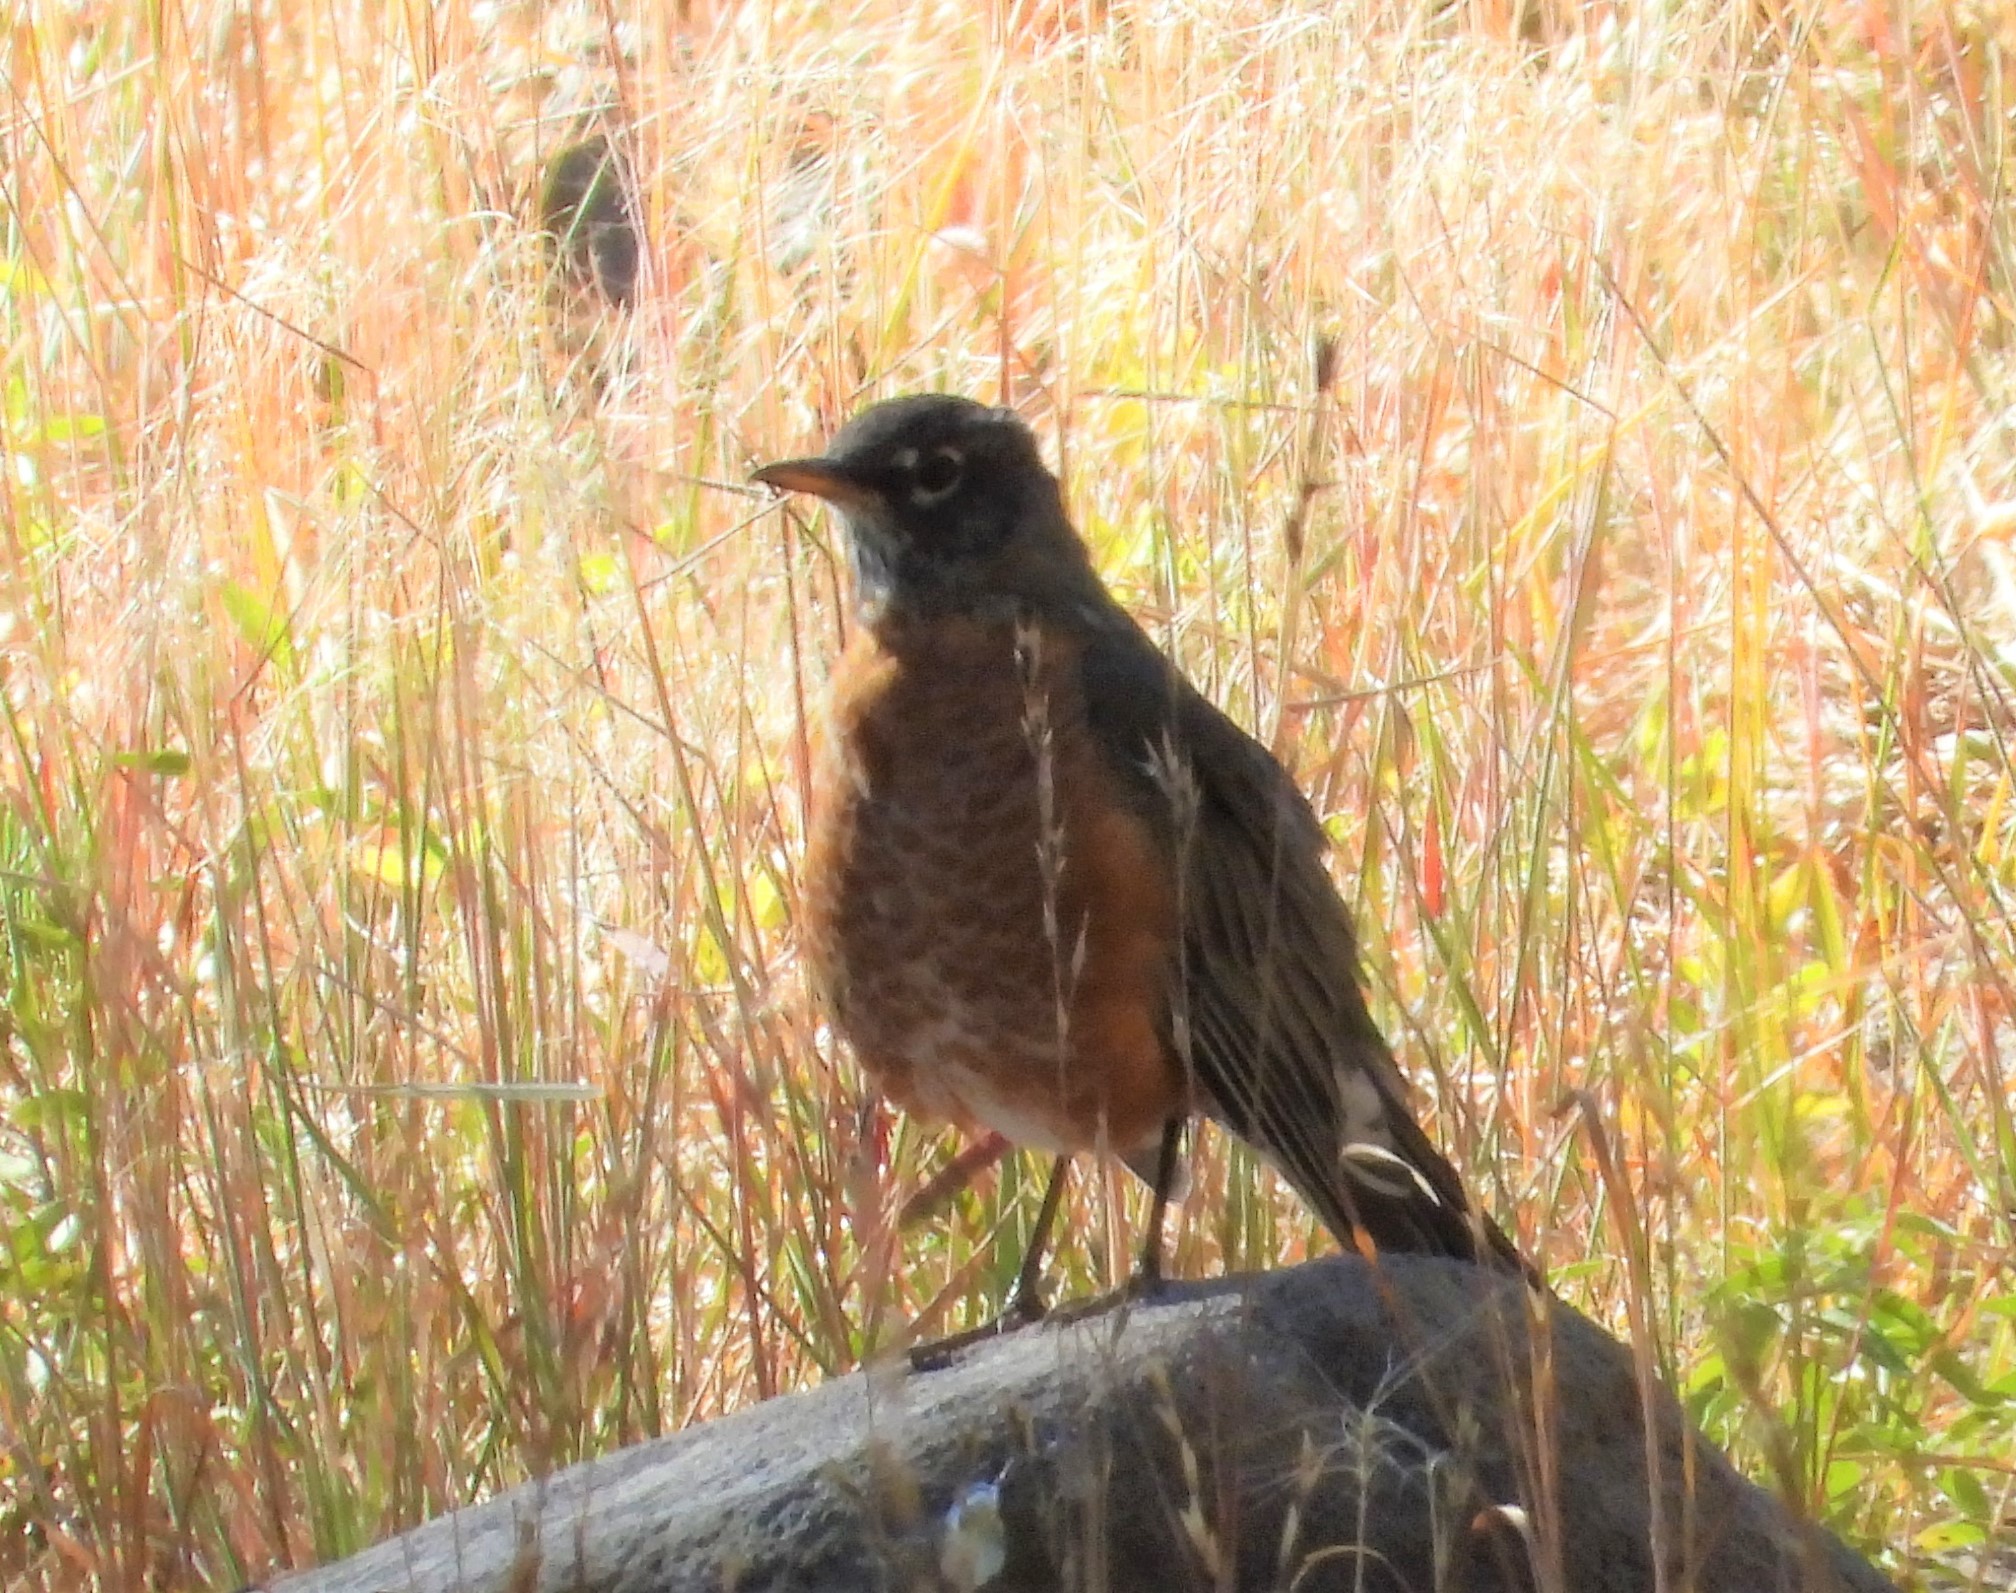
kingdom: Animalia
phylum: Chordata
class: Aves
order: Passeriformes
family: Turdidae
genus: Turdus
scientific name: Turdus migratorius
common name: American robin
